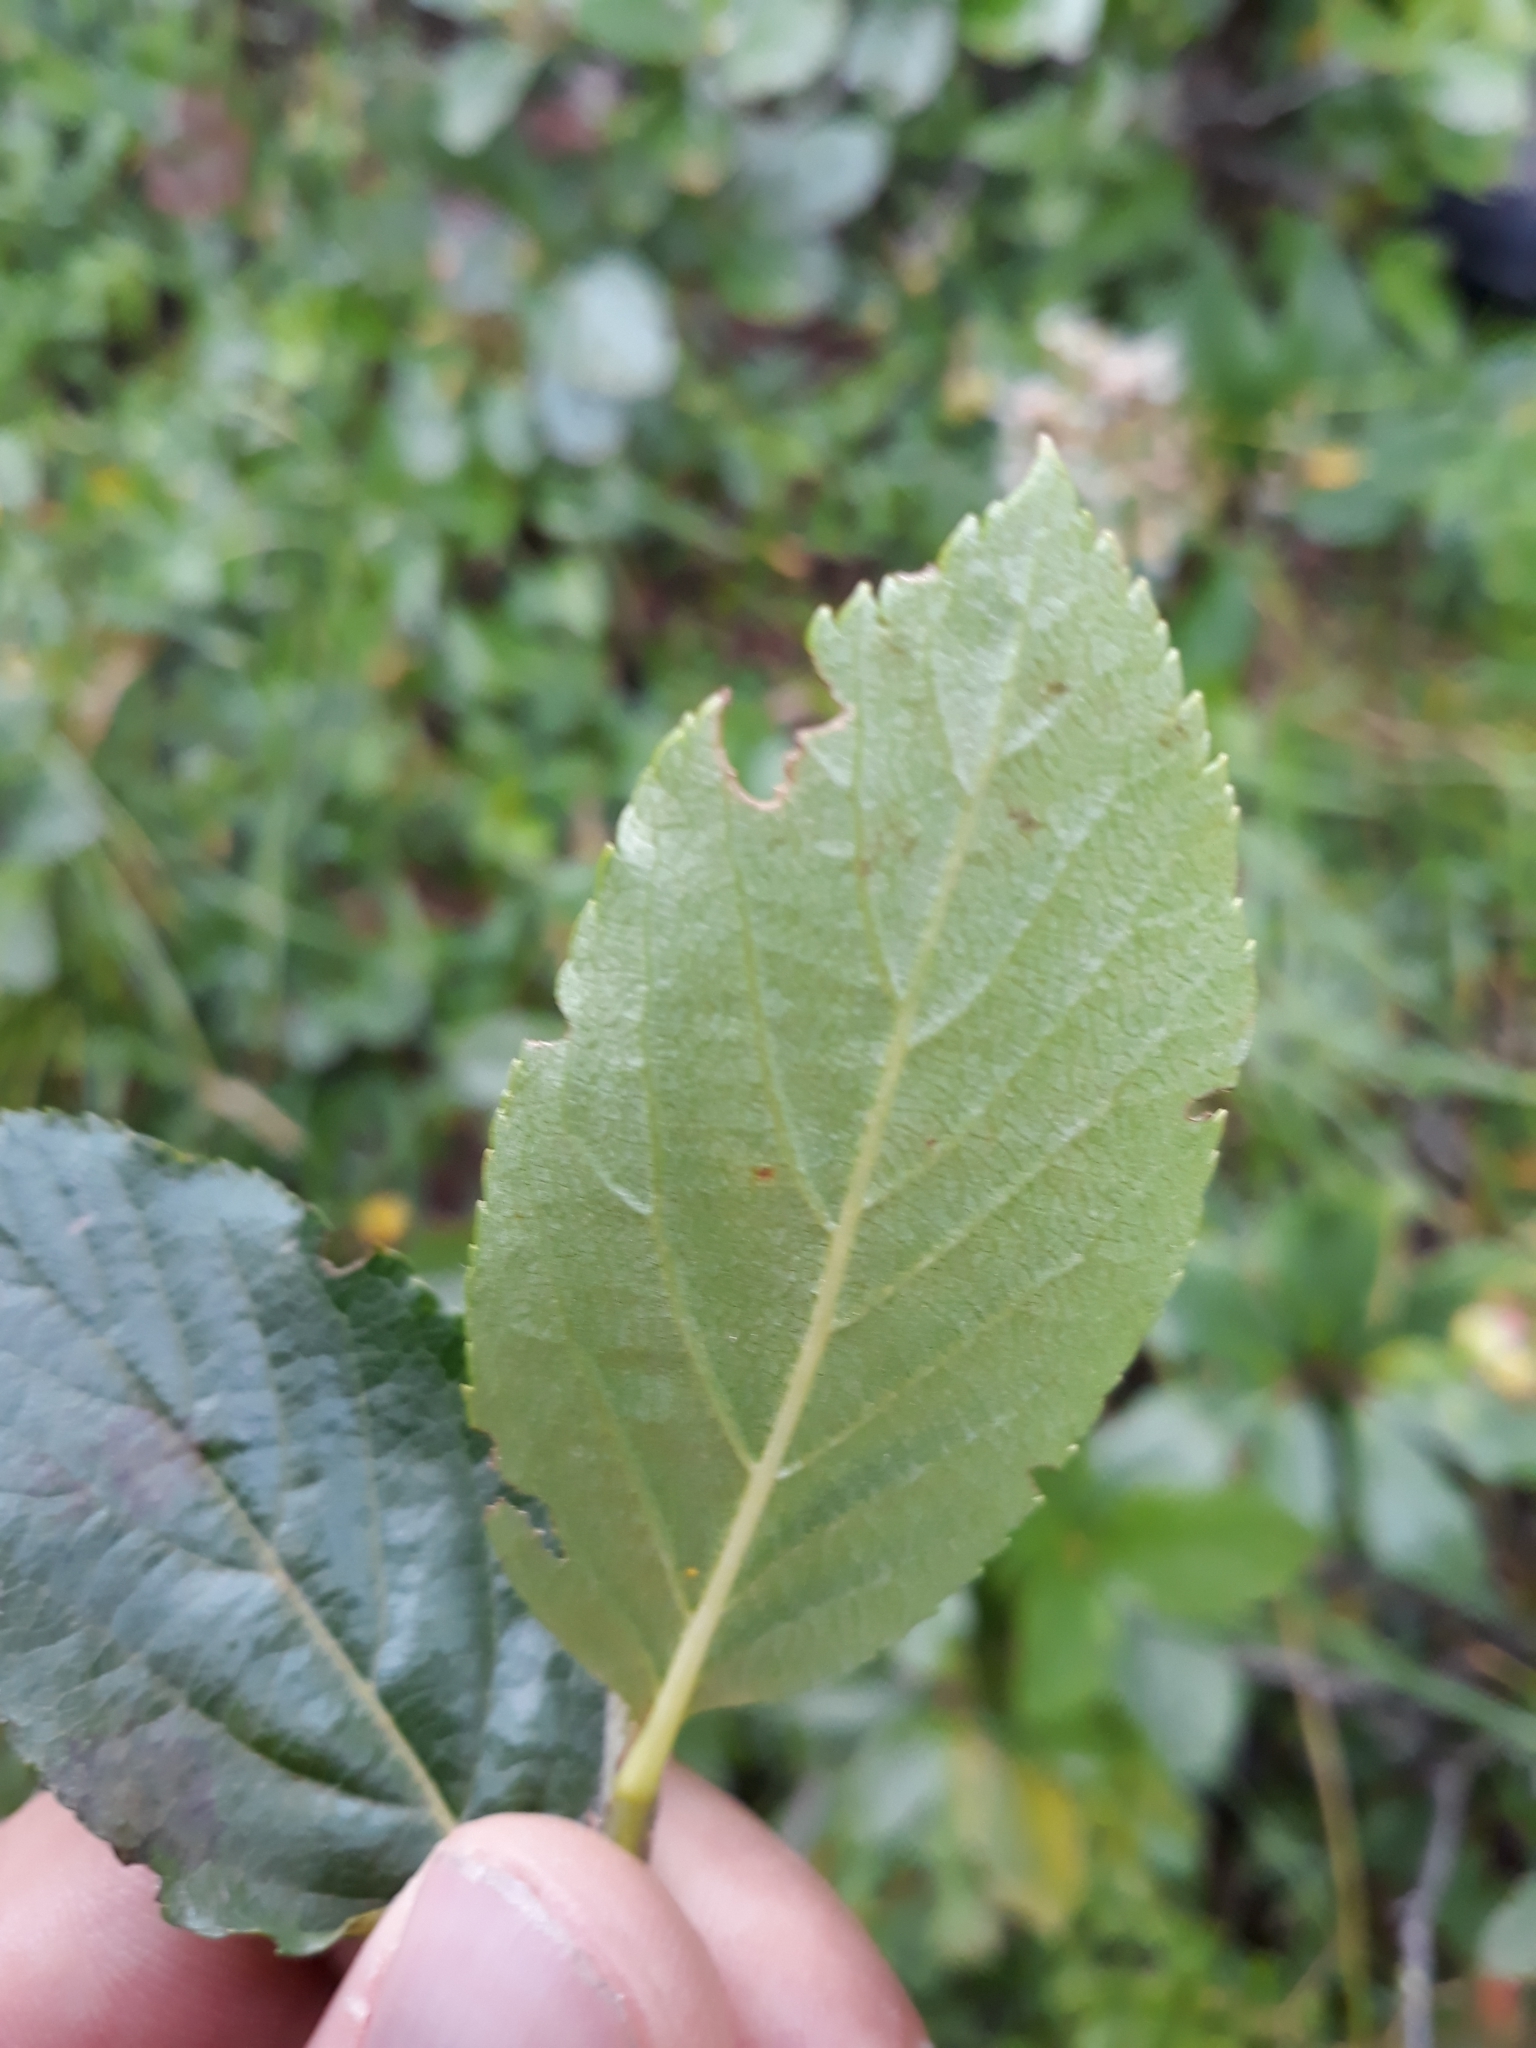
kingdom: Plantae
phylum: Tracheophyta
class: Magnoliopsida
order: Rosales
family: Rosaceae
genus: Chamaemespilus
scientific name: Chamaemespilus alpina
